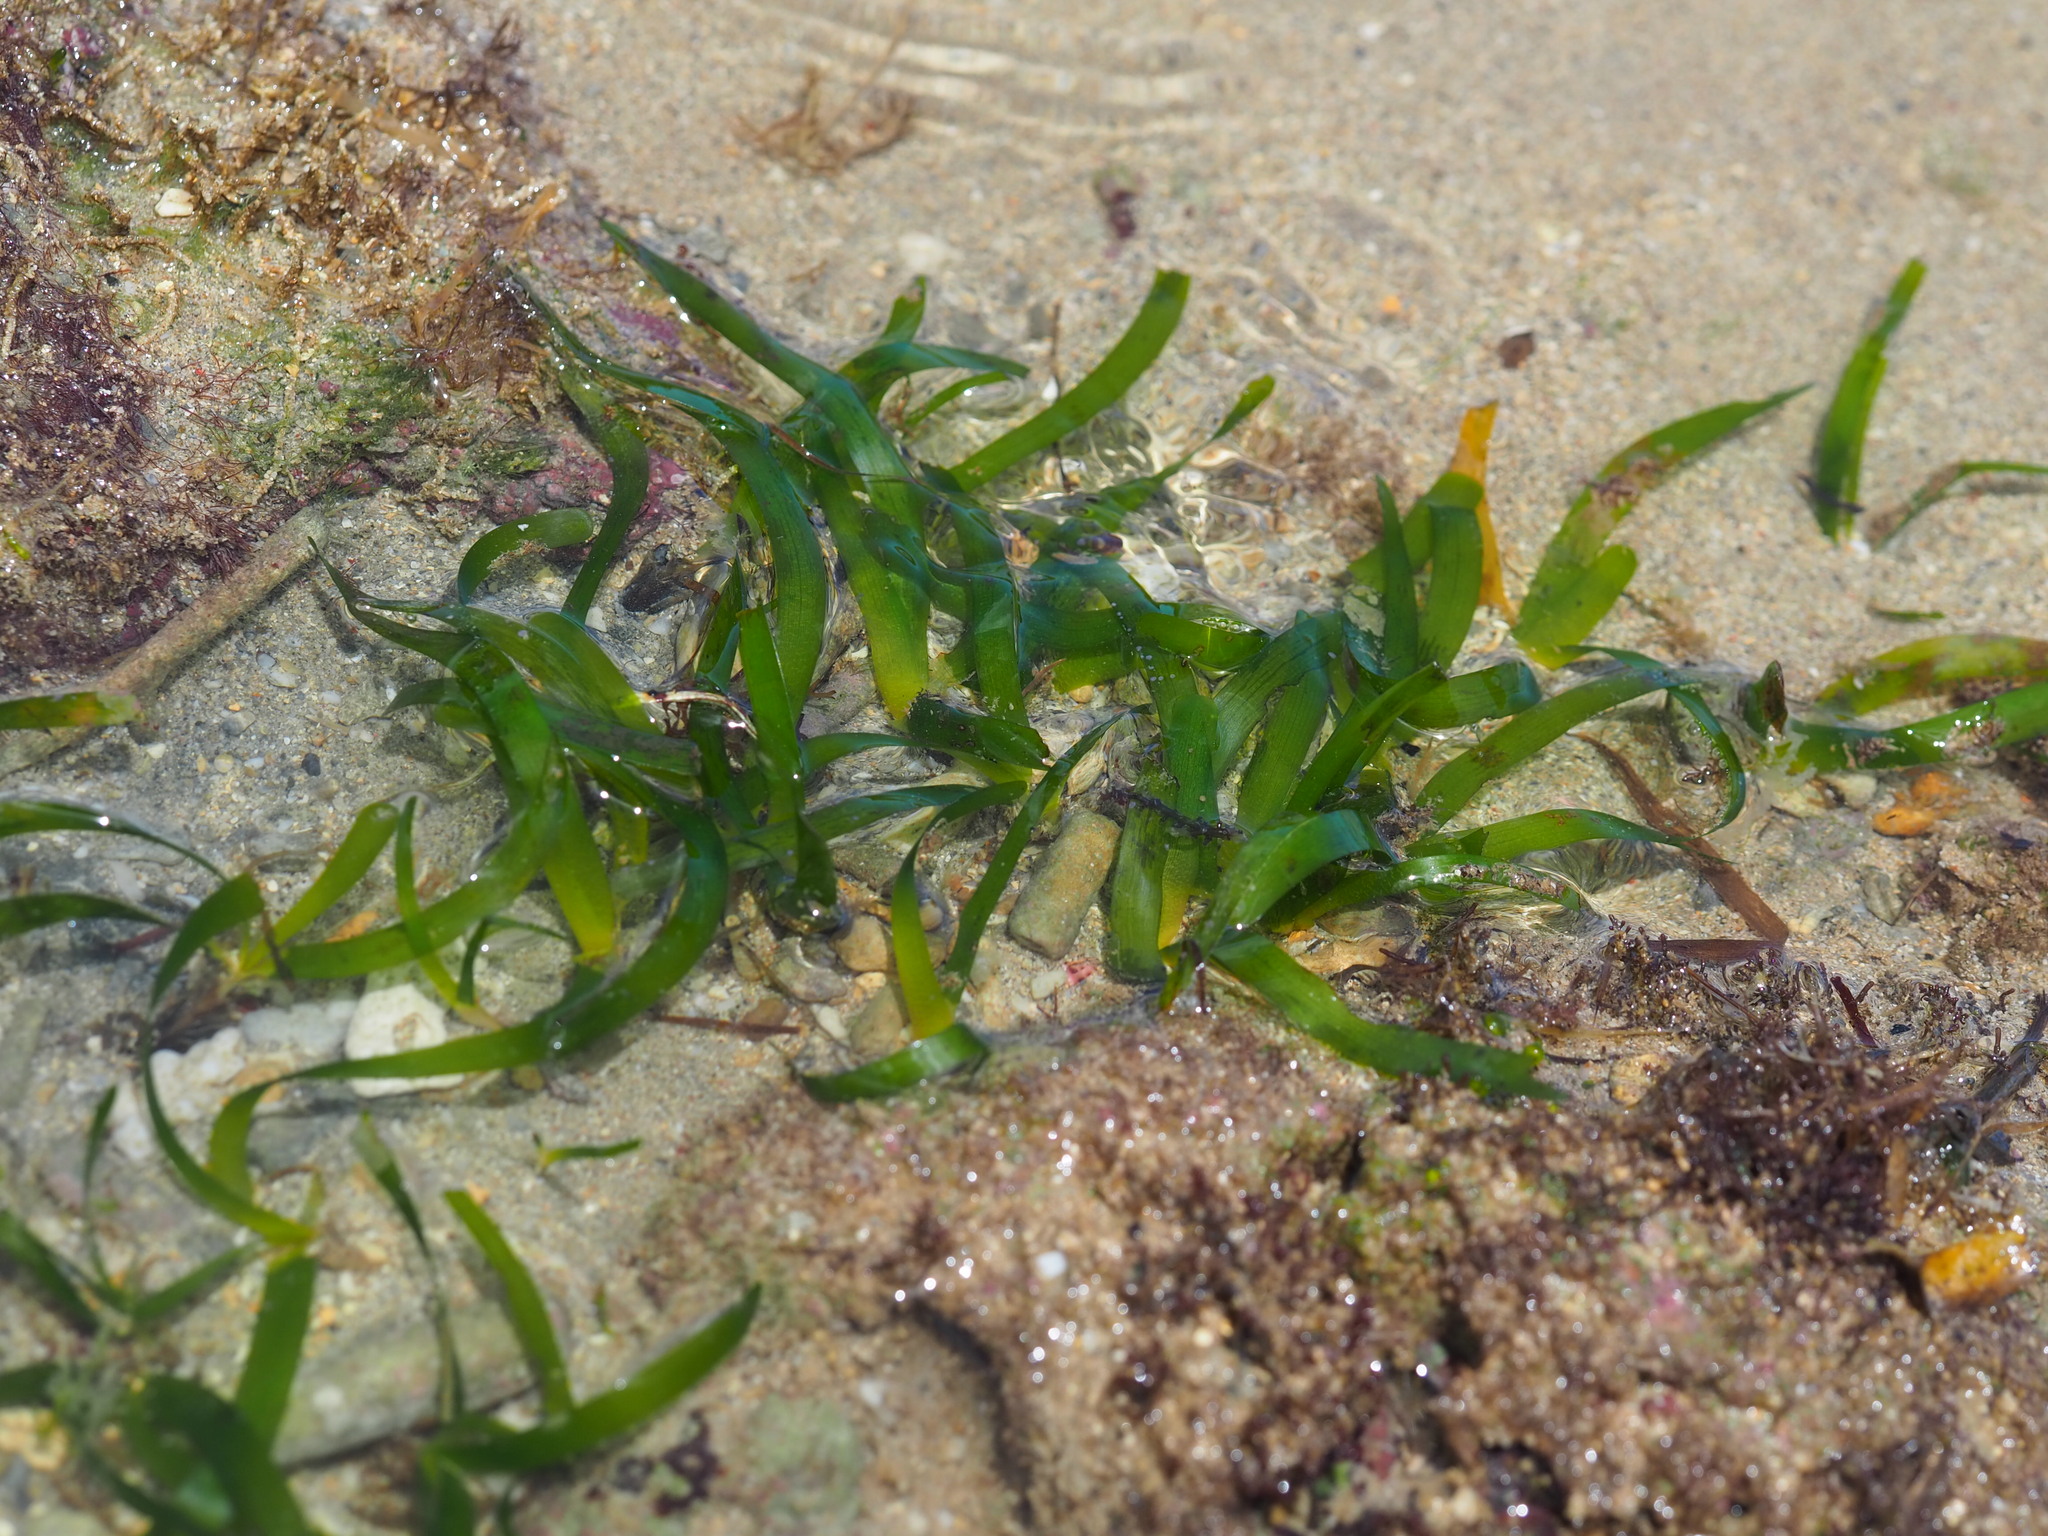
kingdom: Plantae
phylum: Tracheophyta
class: Liliopsida
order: Alismatales
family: Hydrocharitaceae
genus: Thalassia
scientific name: Thalassia hemprichii
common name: Species code: th
